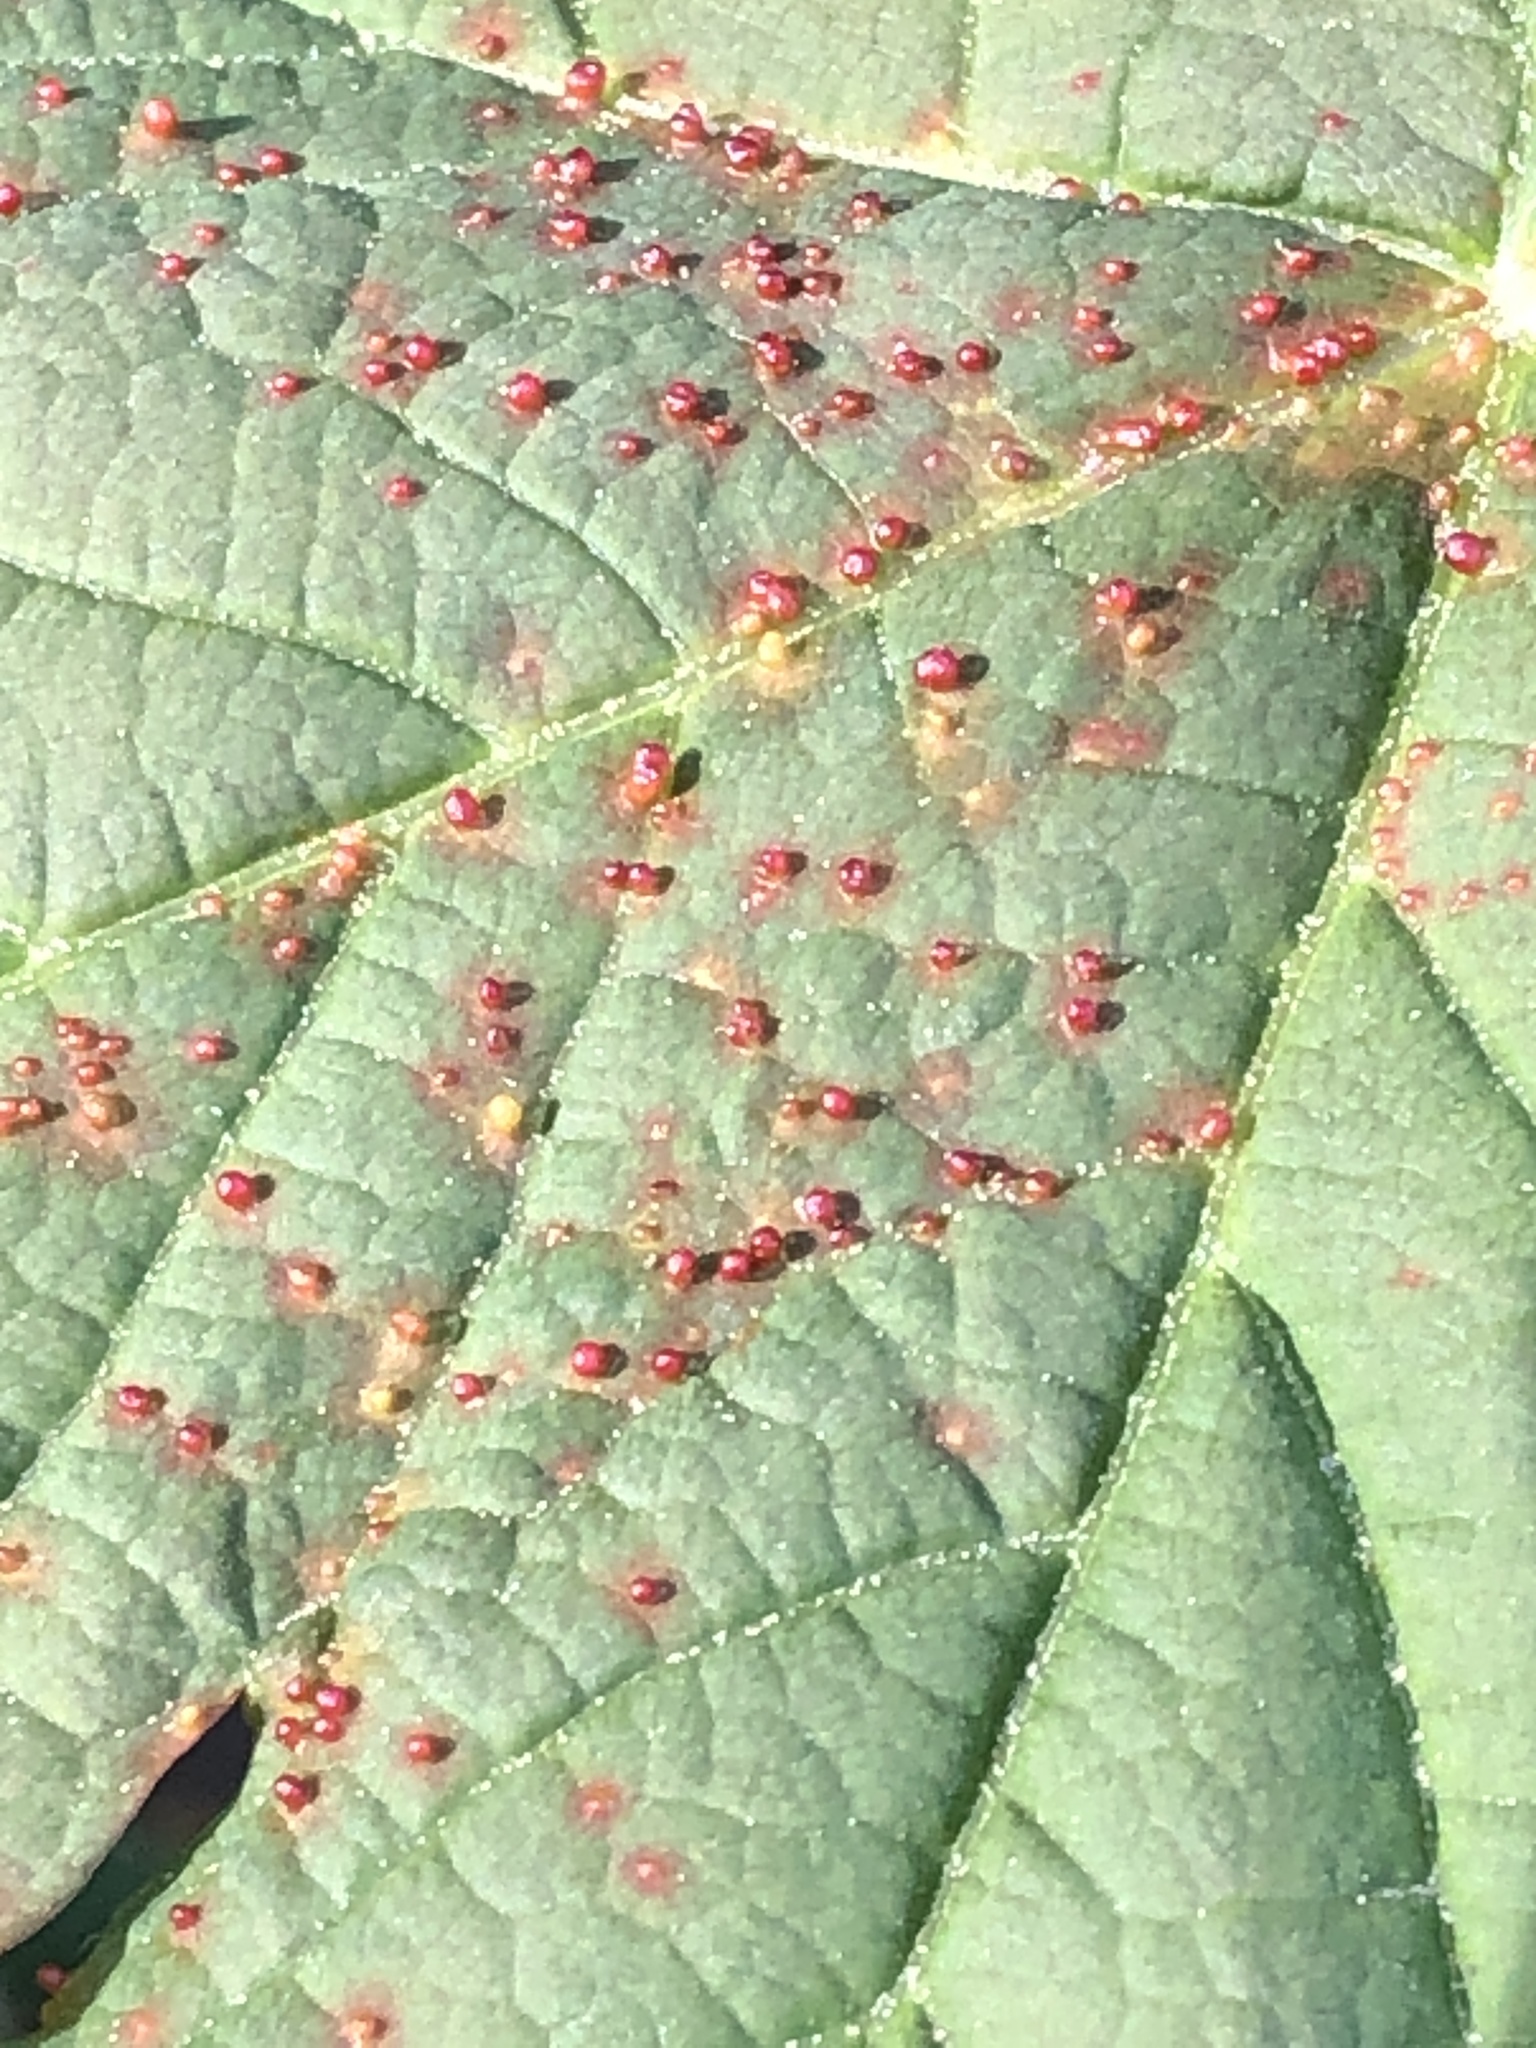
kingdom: Animalia
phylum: Arthropoda
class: Arachnida
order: Trombidiformes
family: Eriophyidae
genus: Aceria
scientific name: Aceria cephaloneus
